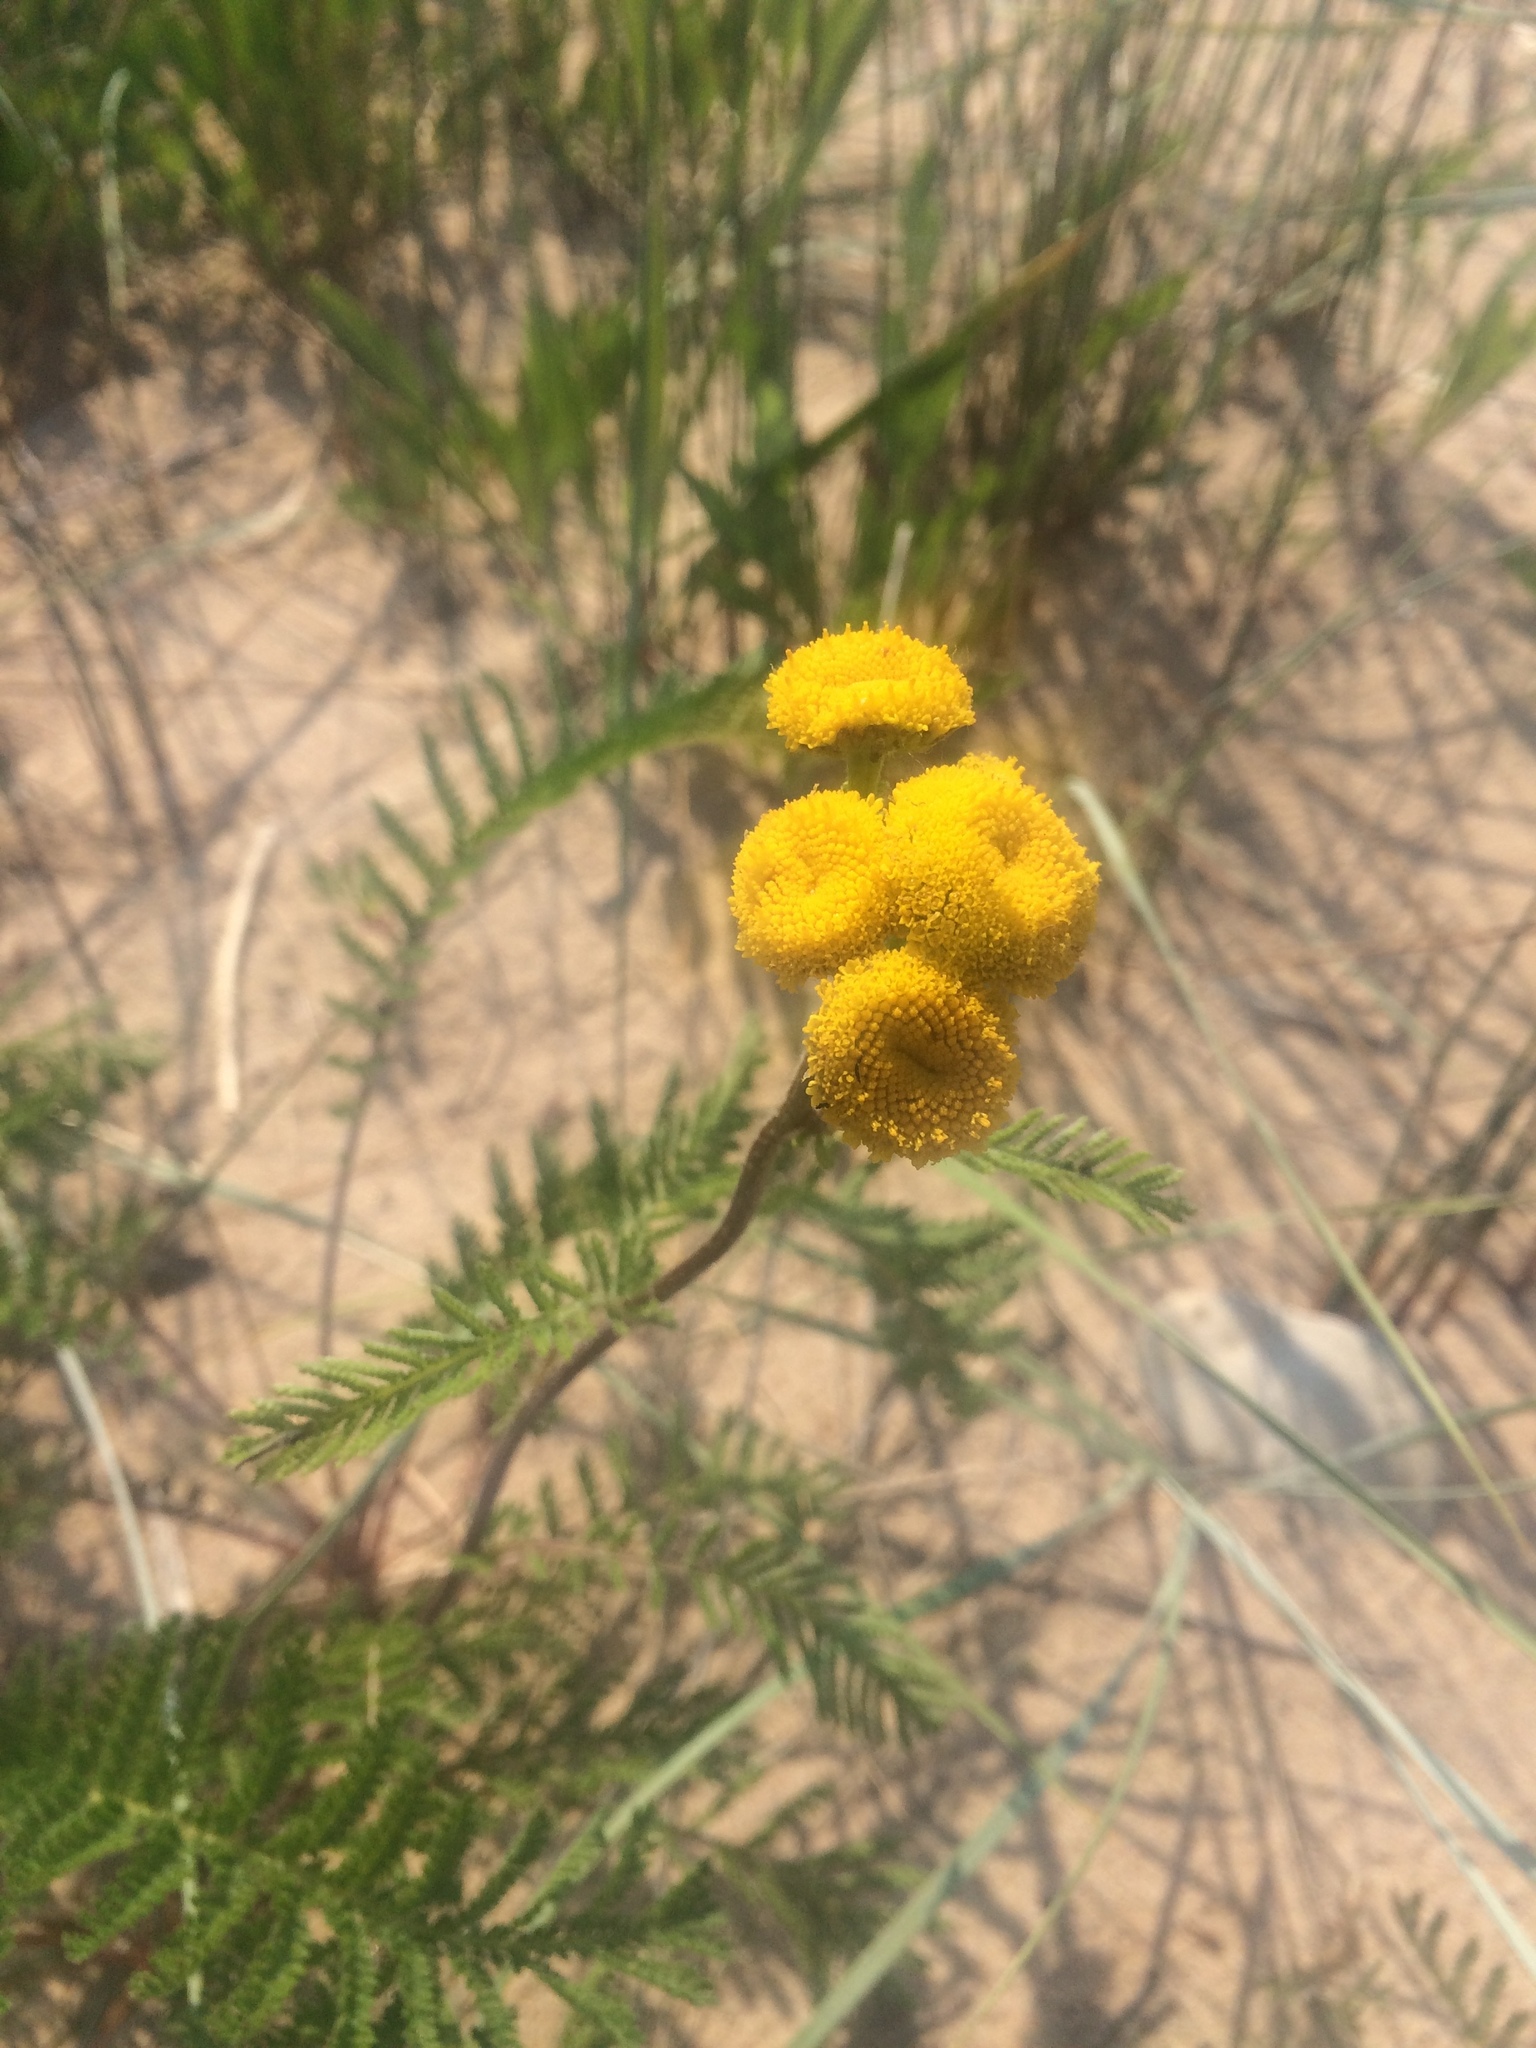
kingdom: Plantae
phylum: Tracheophyta
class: Magnoliopsida
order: Asterales
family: Asteraceae
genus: Tanacetum
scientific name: Tanacetum bipinnatum
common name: Dwarf tansy
